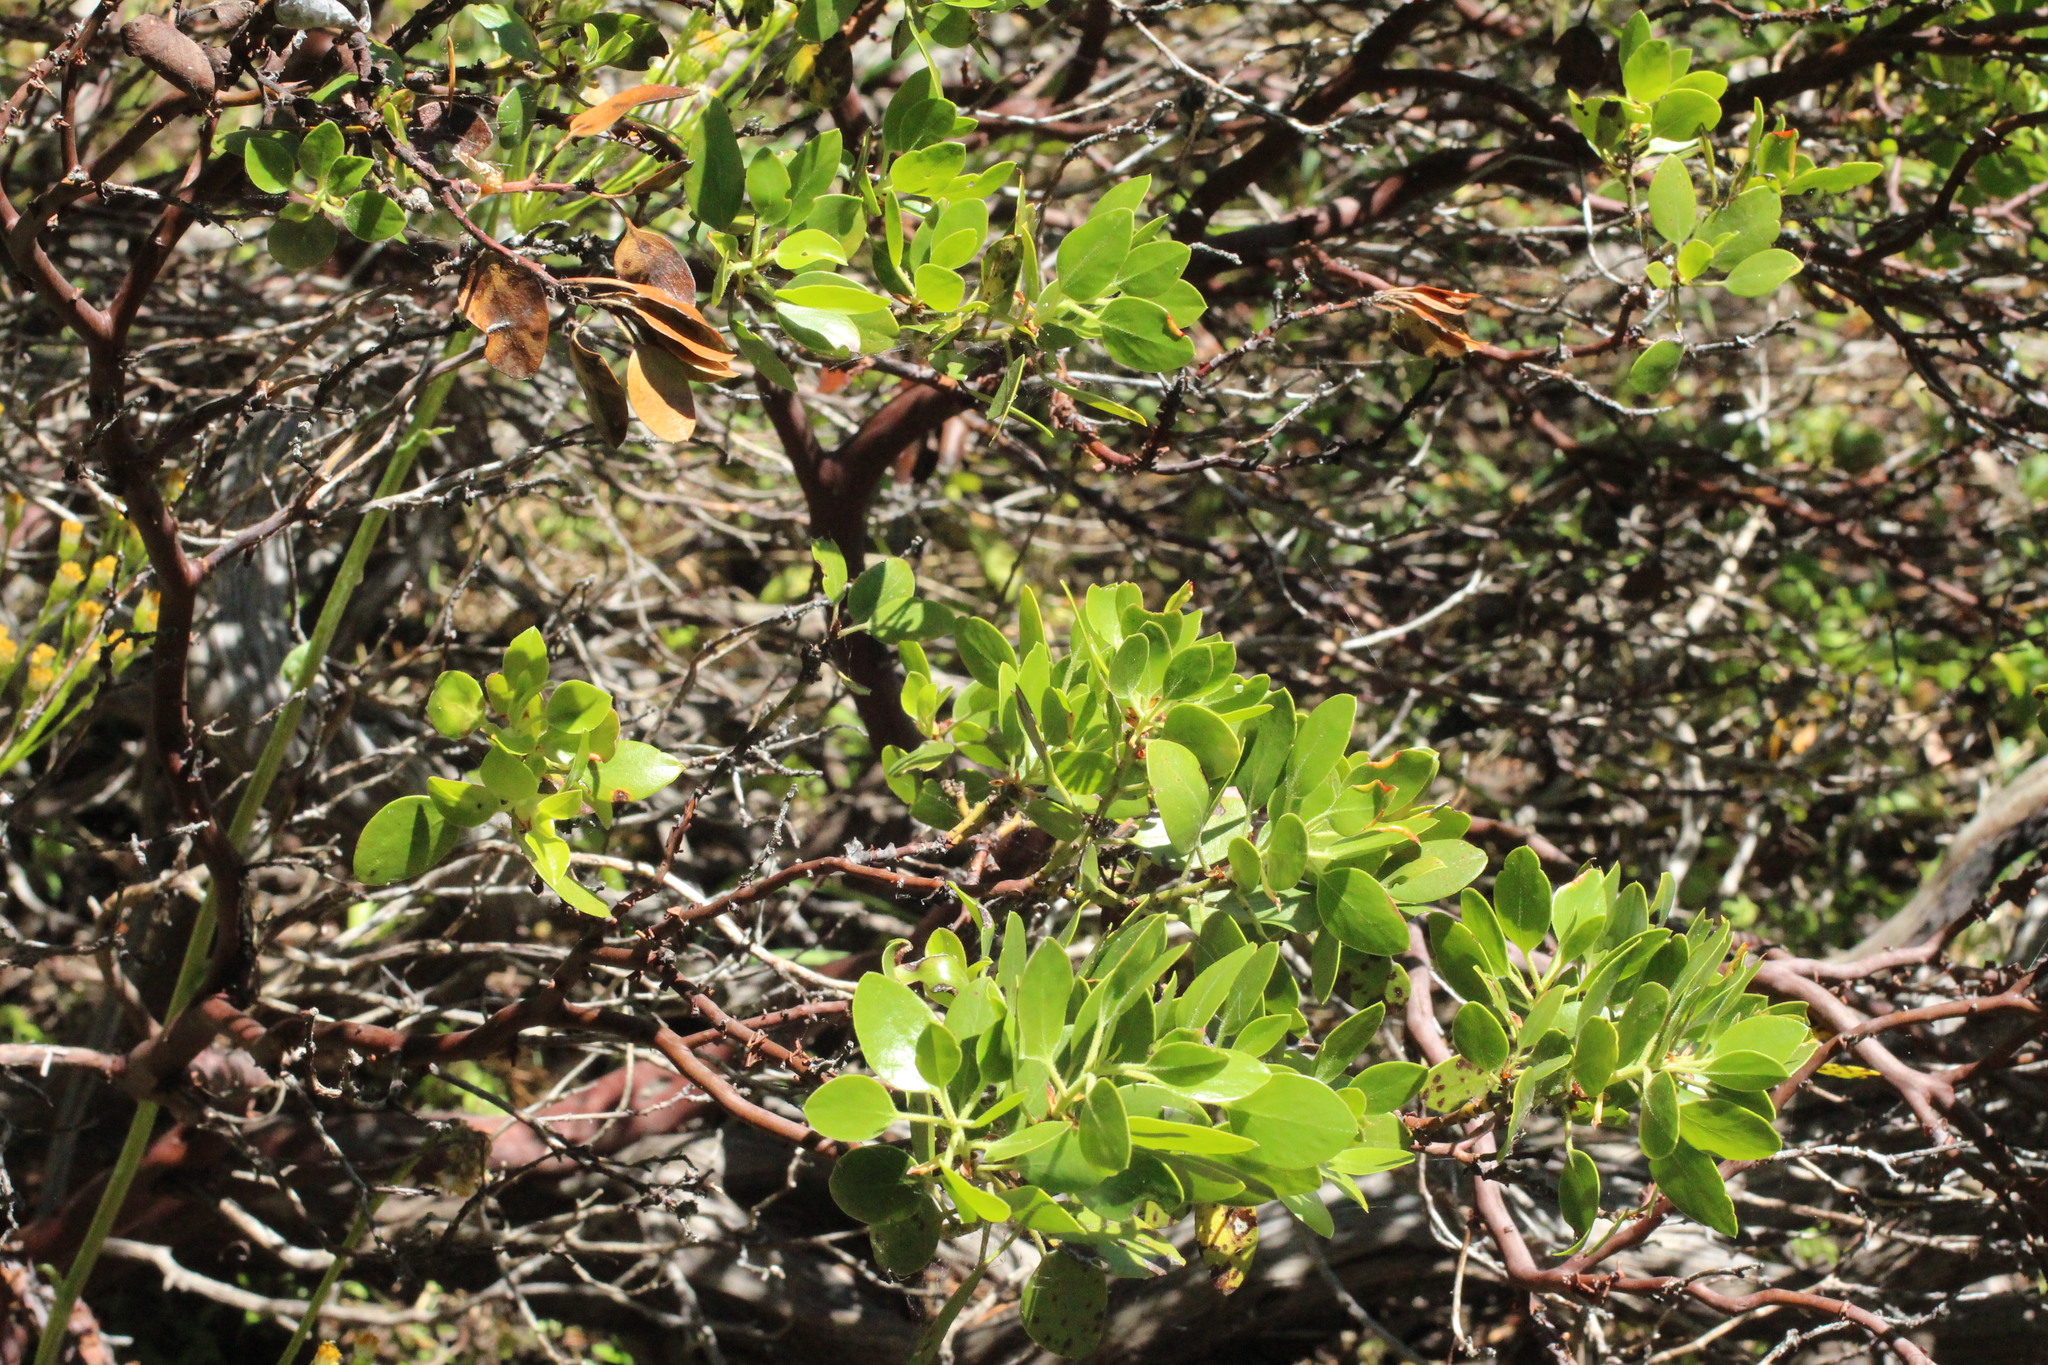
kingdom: Plantae
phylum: Tracheophyta
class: Magnoliopsida
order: Ericales
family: Ericaceae
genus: Arctostaphylos
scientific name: Arctostaphylos patula
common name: Green-leaf manzanita
